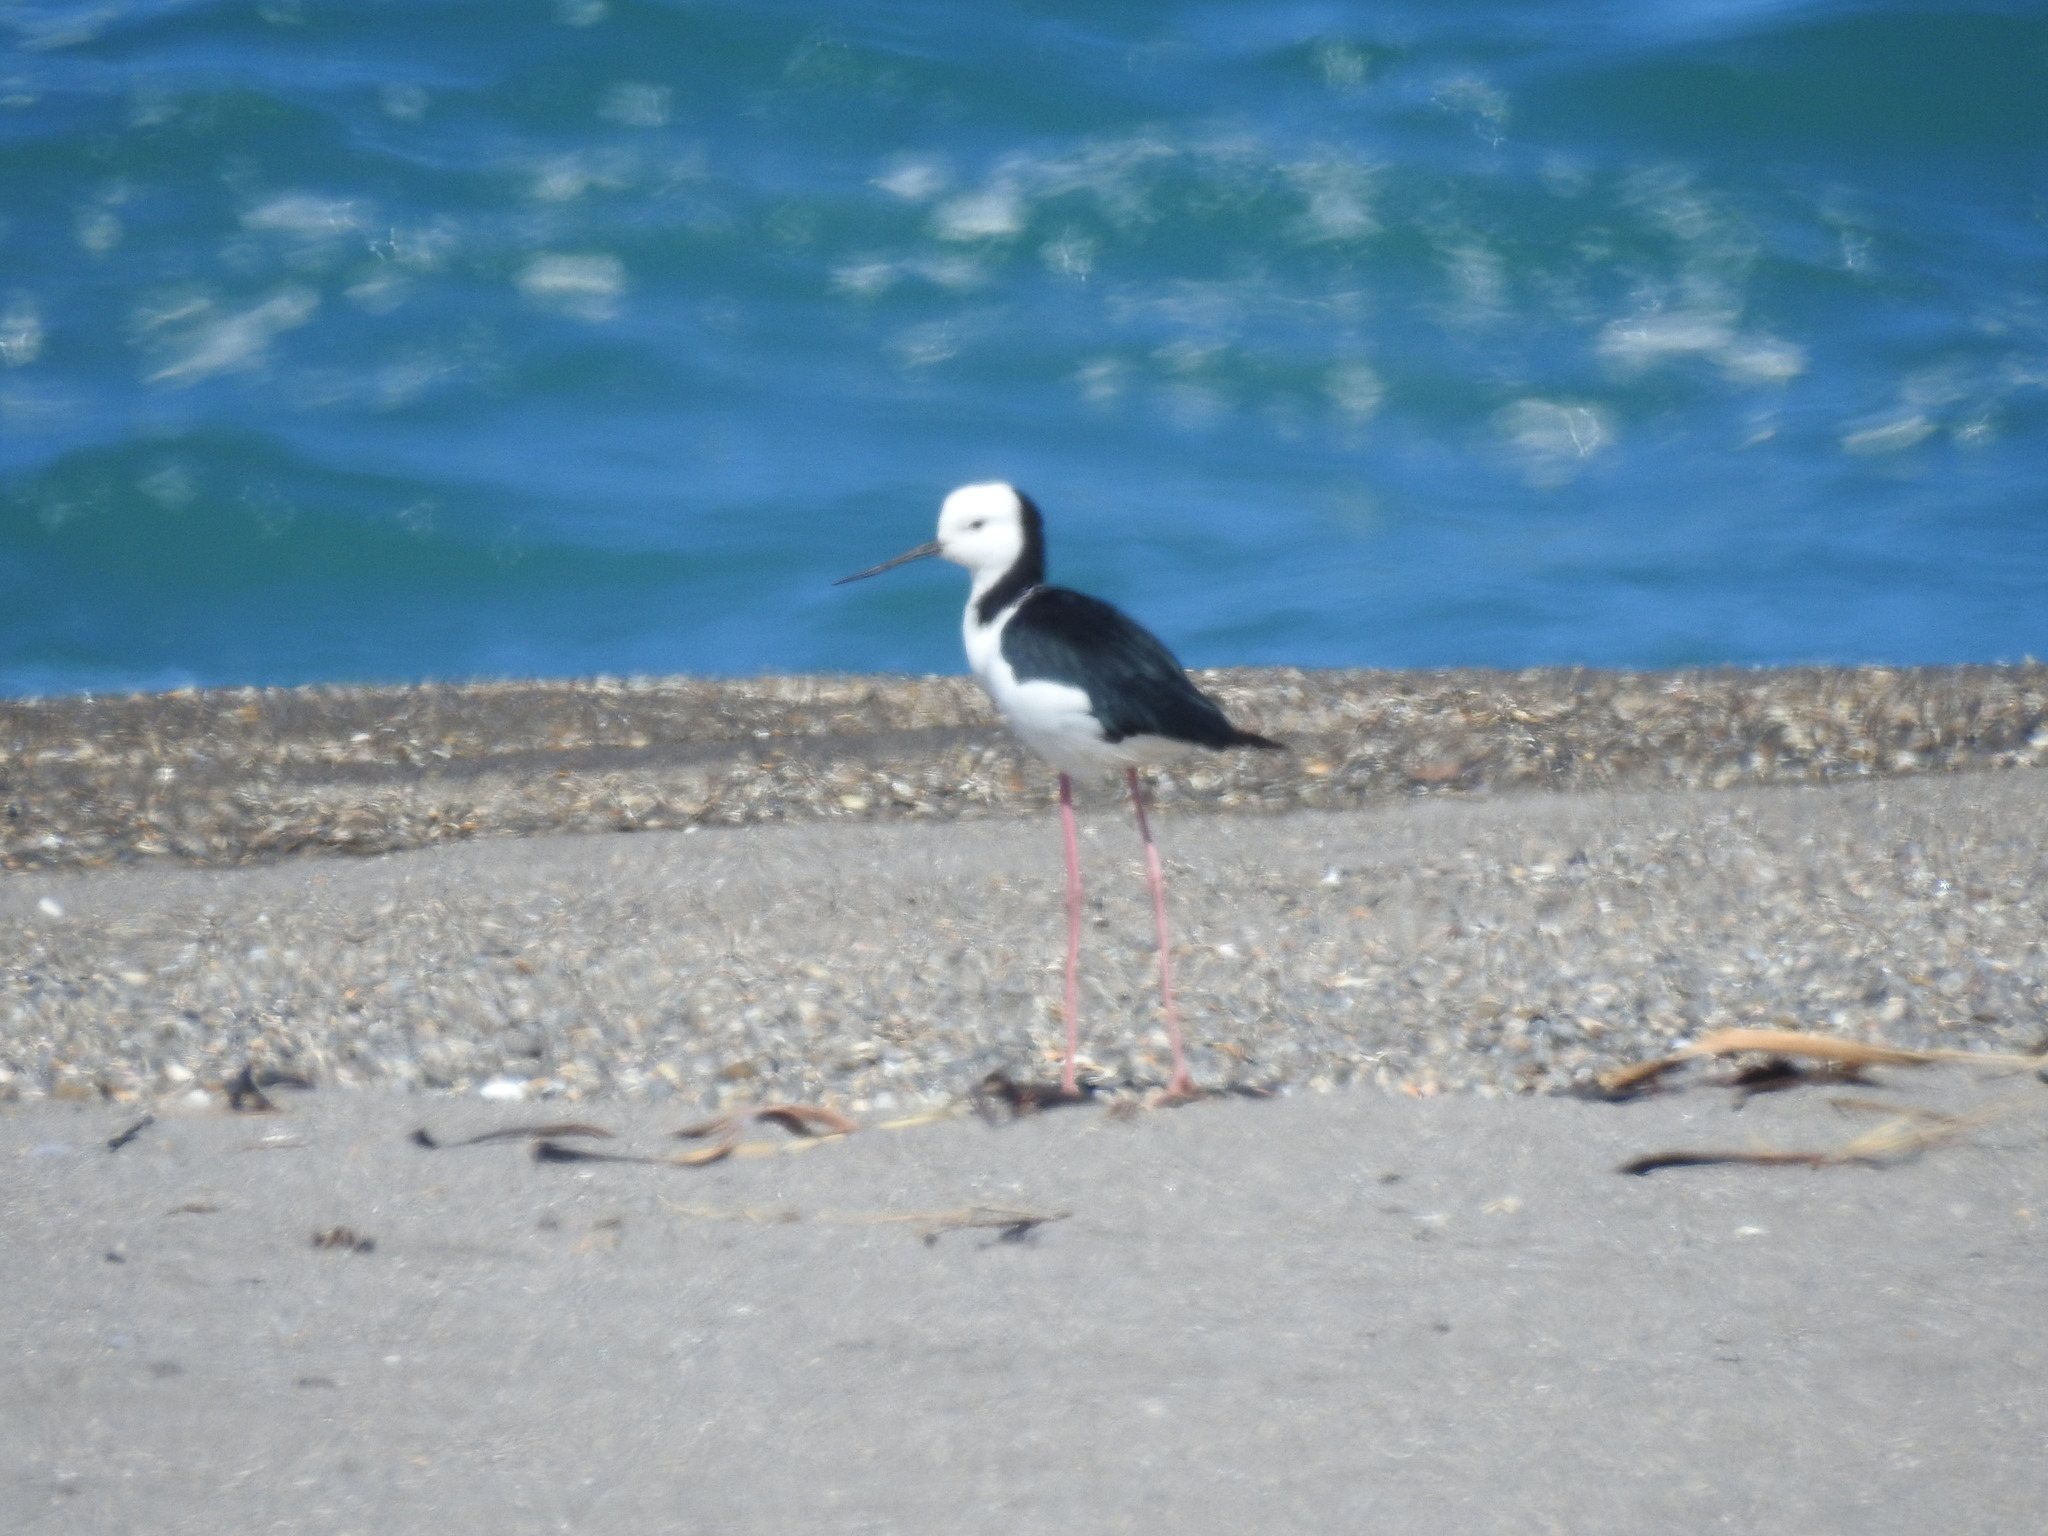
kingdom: Animalia
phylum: Chordata
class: Aves
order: Charadriiformes
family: Recurvirostridae
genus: Himantopus
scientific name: Himantopus leucocephalus
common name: White-headed stilt
